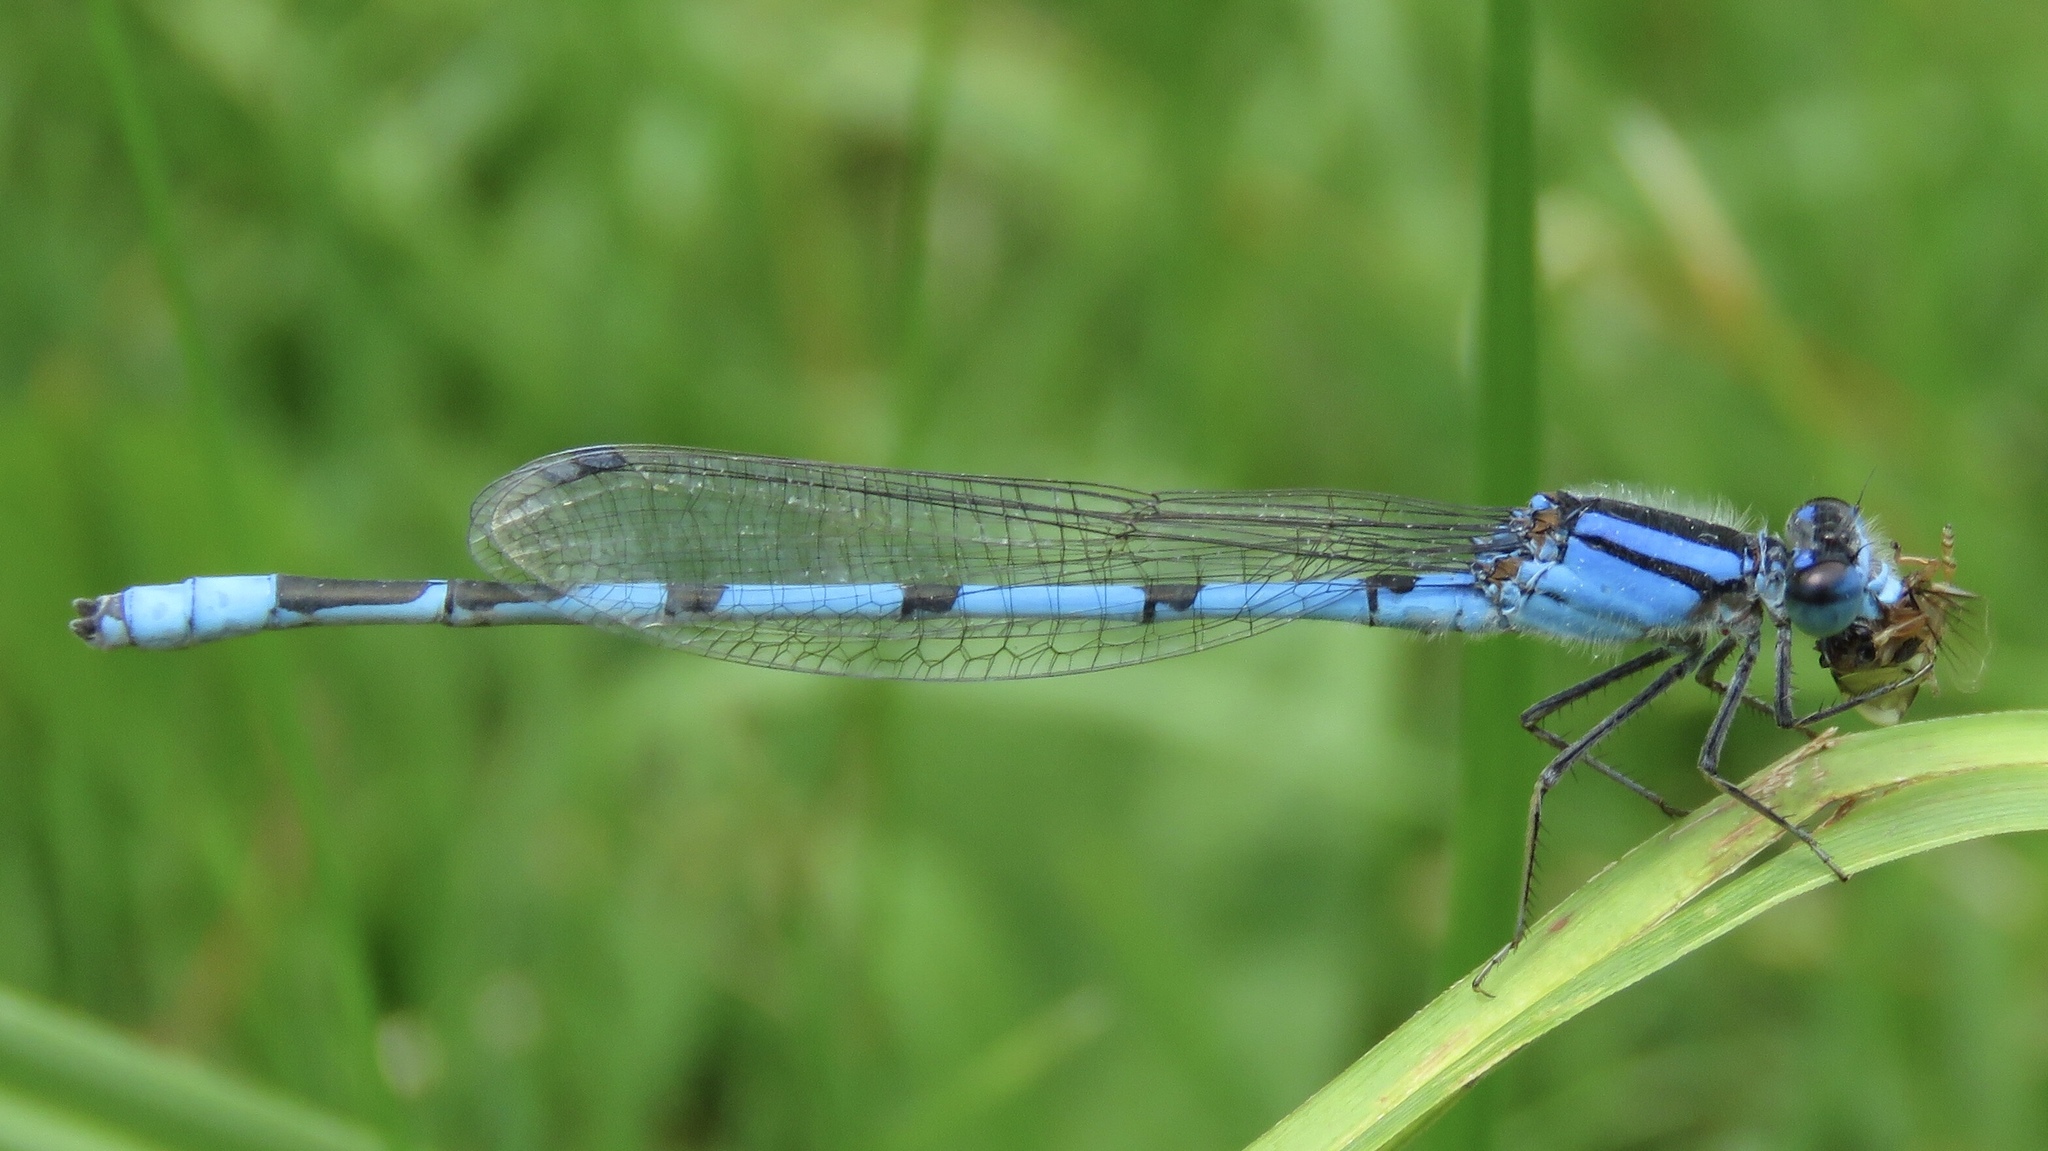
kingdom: Animalia
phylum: Arthropoda
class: Insecta
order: Odonata
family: Coenagrionidae
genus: Enallagma
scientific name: Enallagma civile
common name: Damselfly
